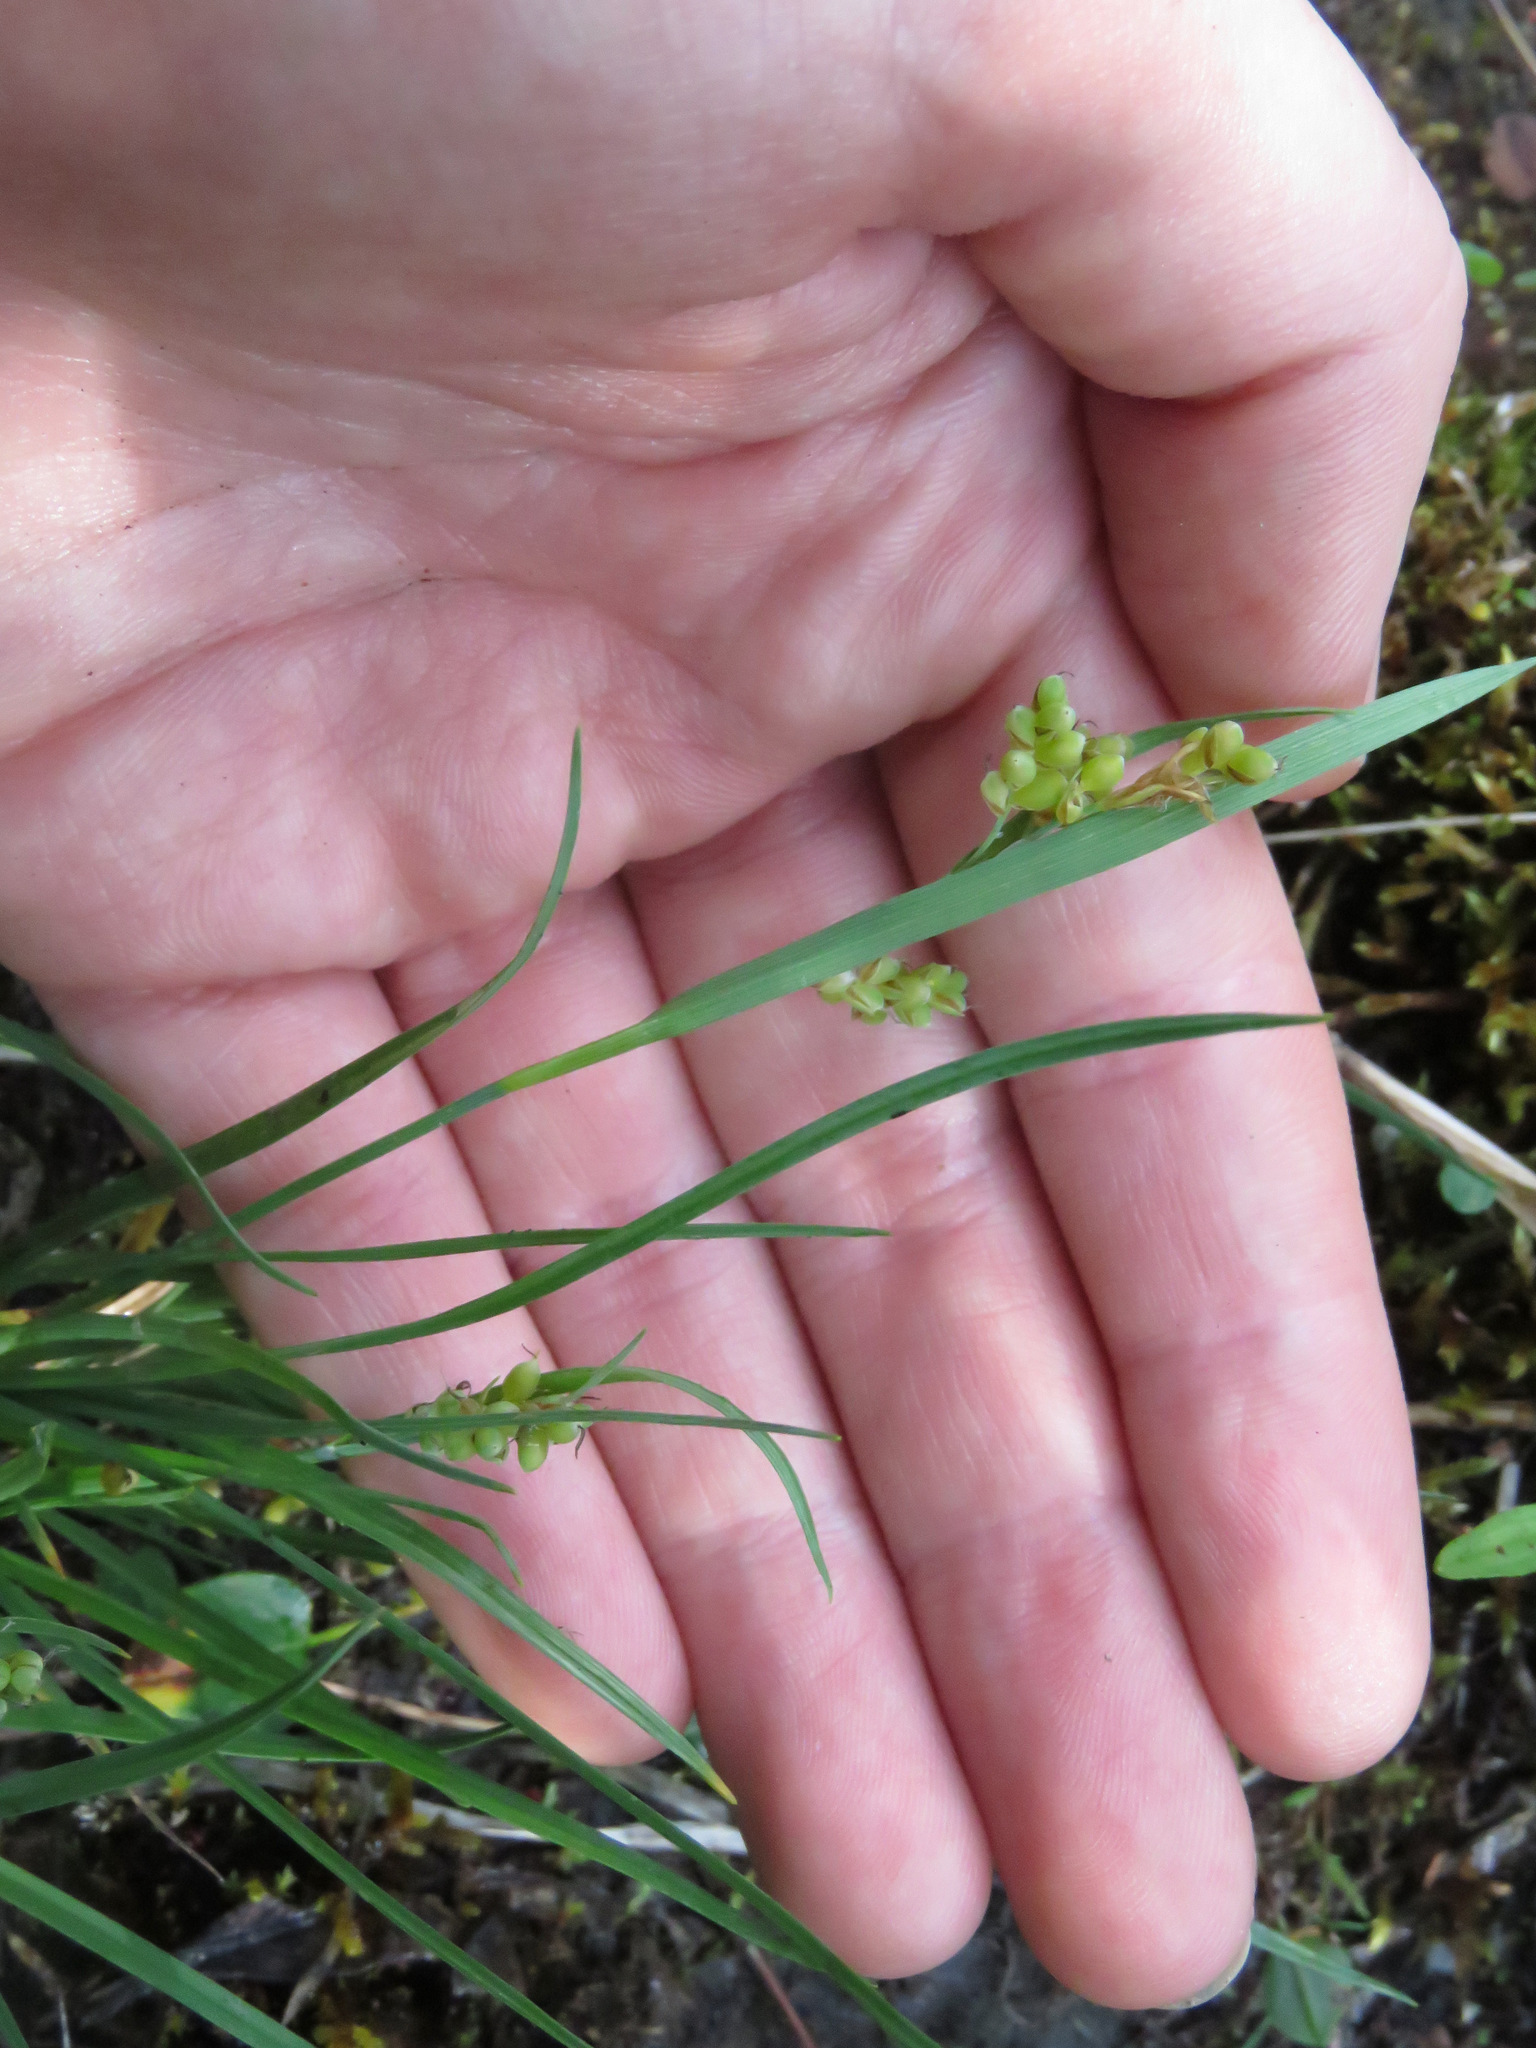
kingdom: Plantae
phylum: Tracheophyta
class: Liliopsida
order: Poales
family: Cyperaceae
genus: Carex
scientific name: Carex aurea
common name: Golden sedge
